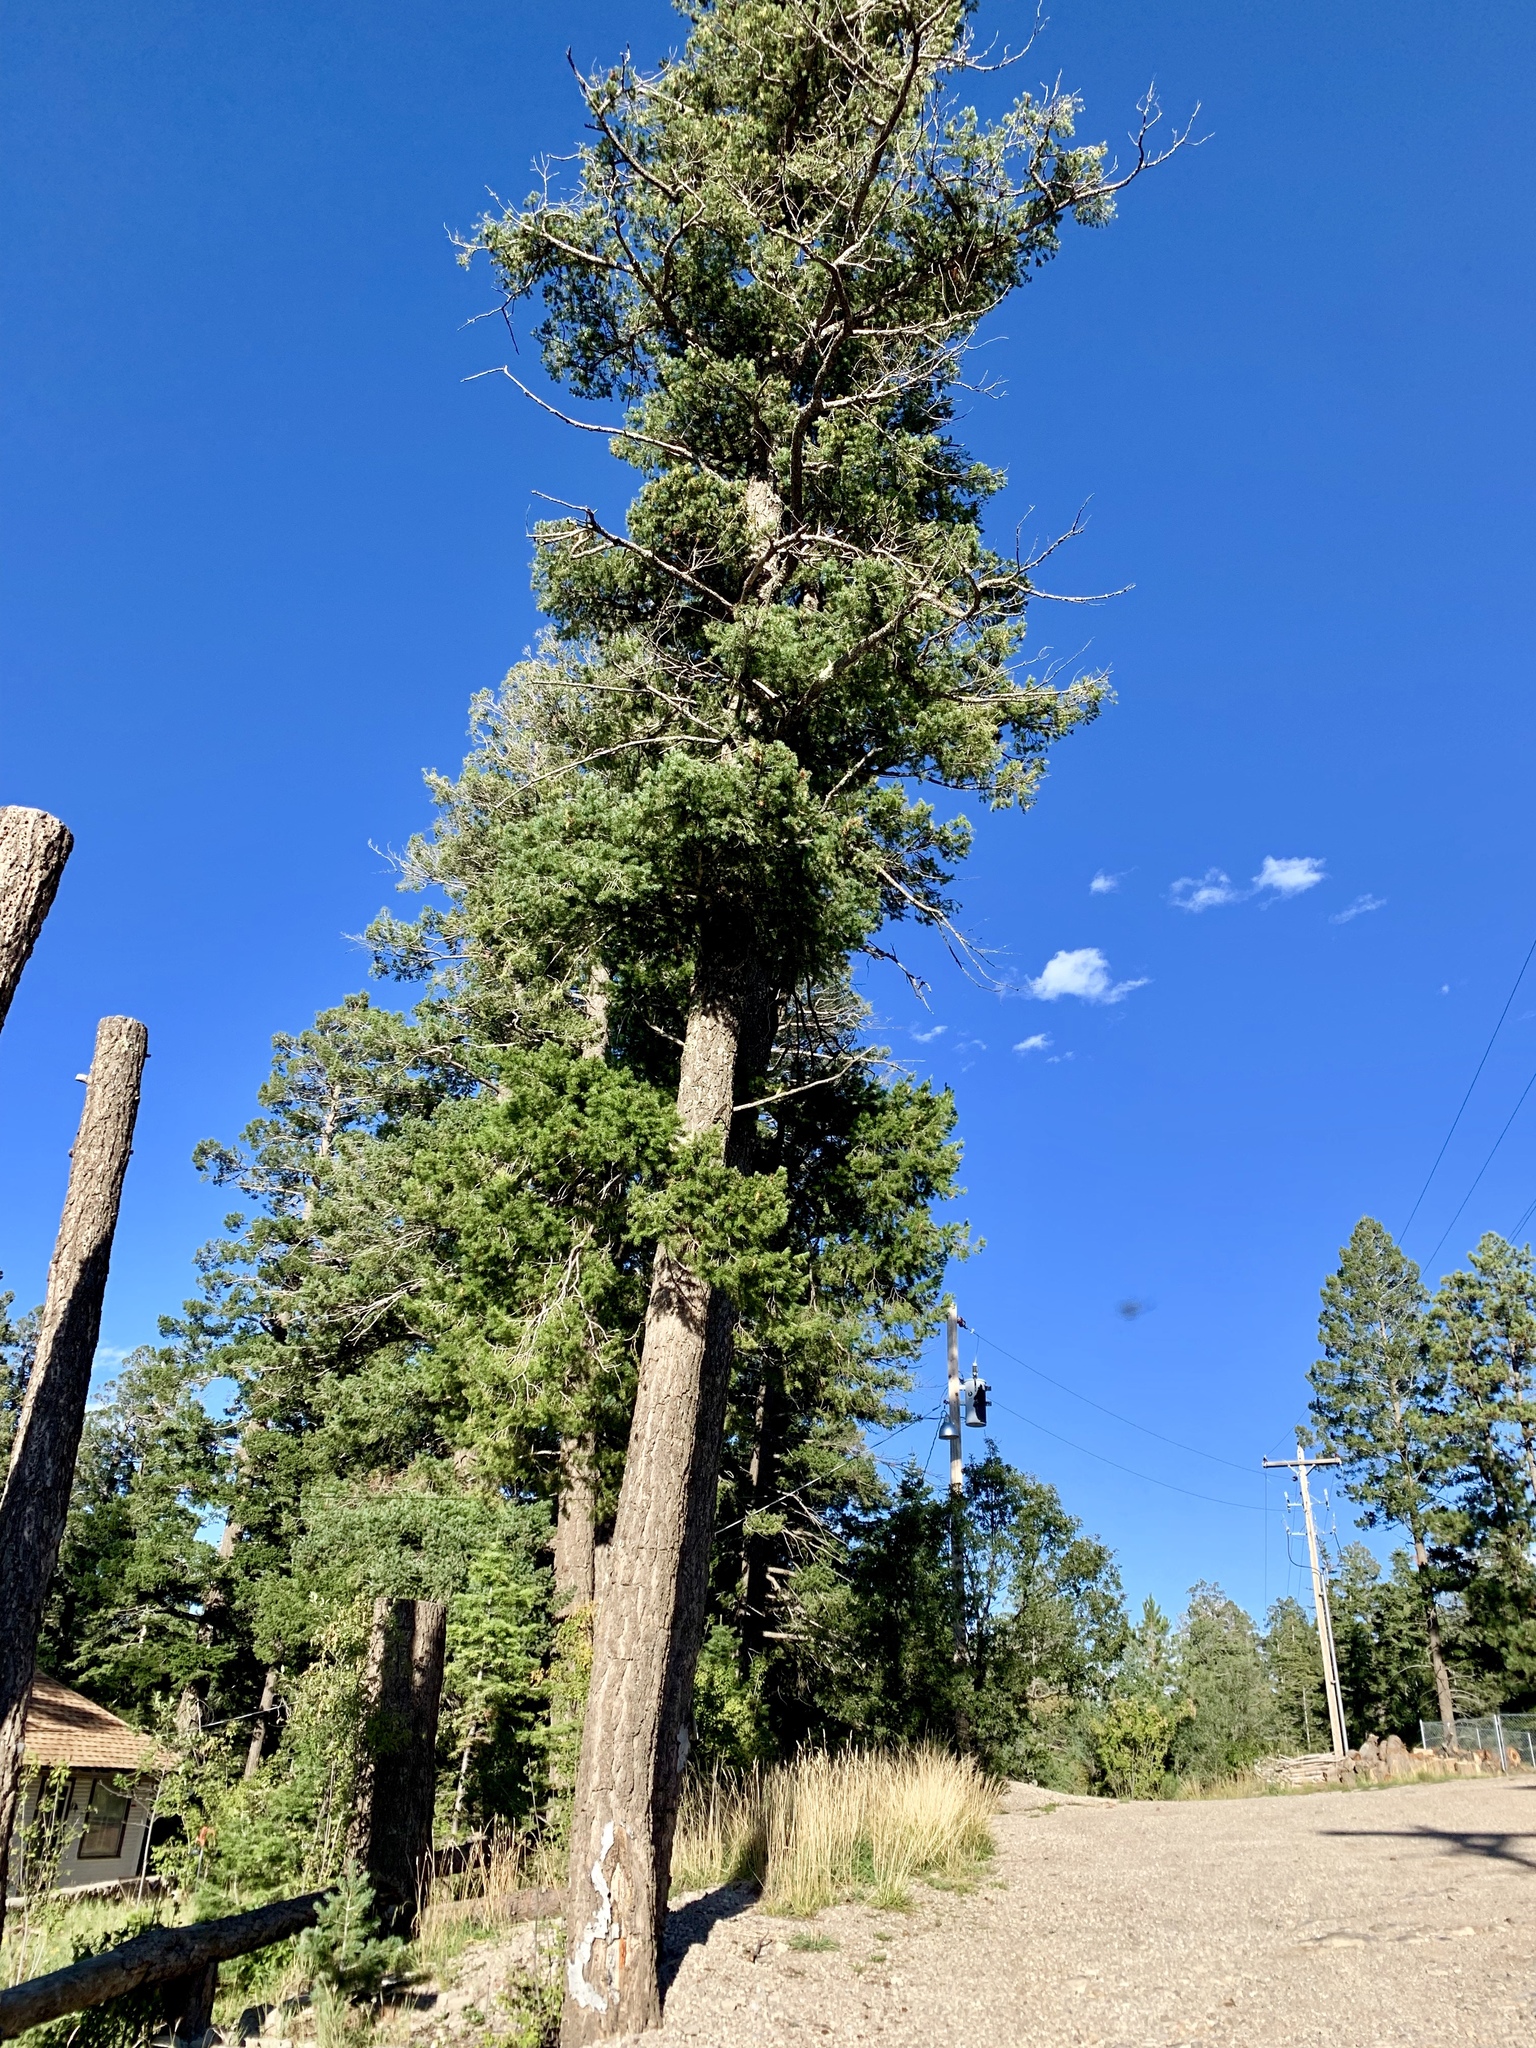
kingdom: Plantae
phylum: Tracheophyta
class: Pinopsida
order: Pinales
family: Pinaceae
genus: Pseudotsuga
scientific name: Pseudotsuga menziesii
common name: Douglas fir
